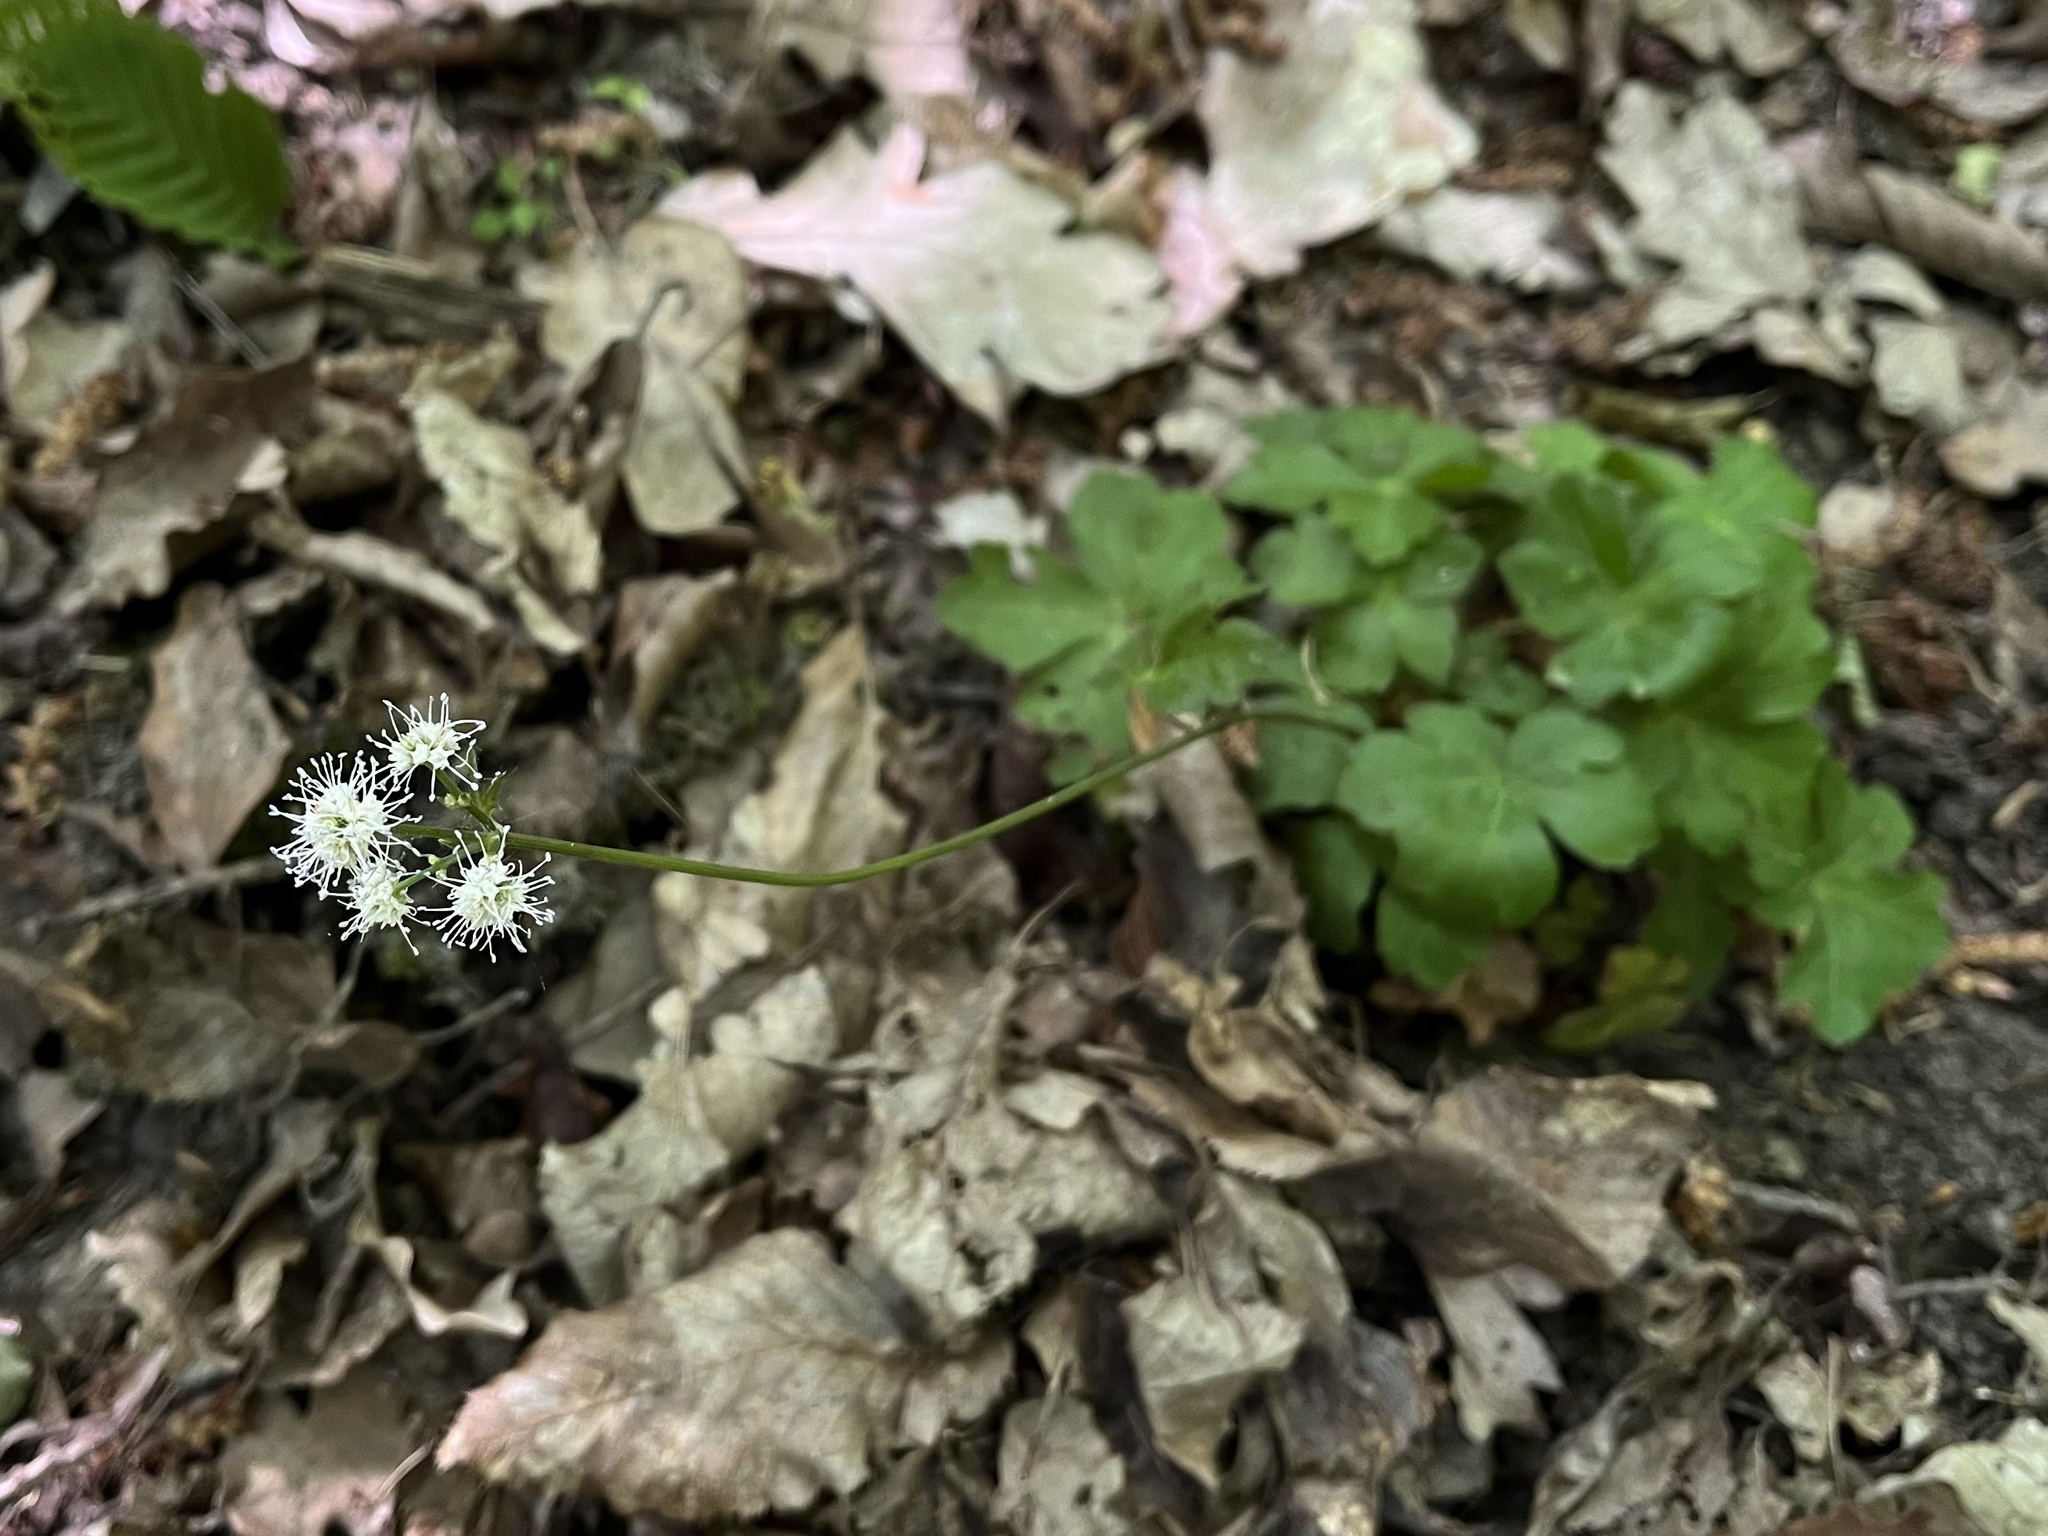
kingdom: Plantae
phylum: Tracheophyta
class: Magnoliopsida
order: Apiales
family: Apiaceae
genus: Sanicula
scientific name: Sanicula europaea
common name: Sanicle
